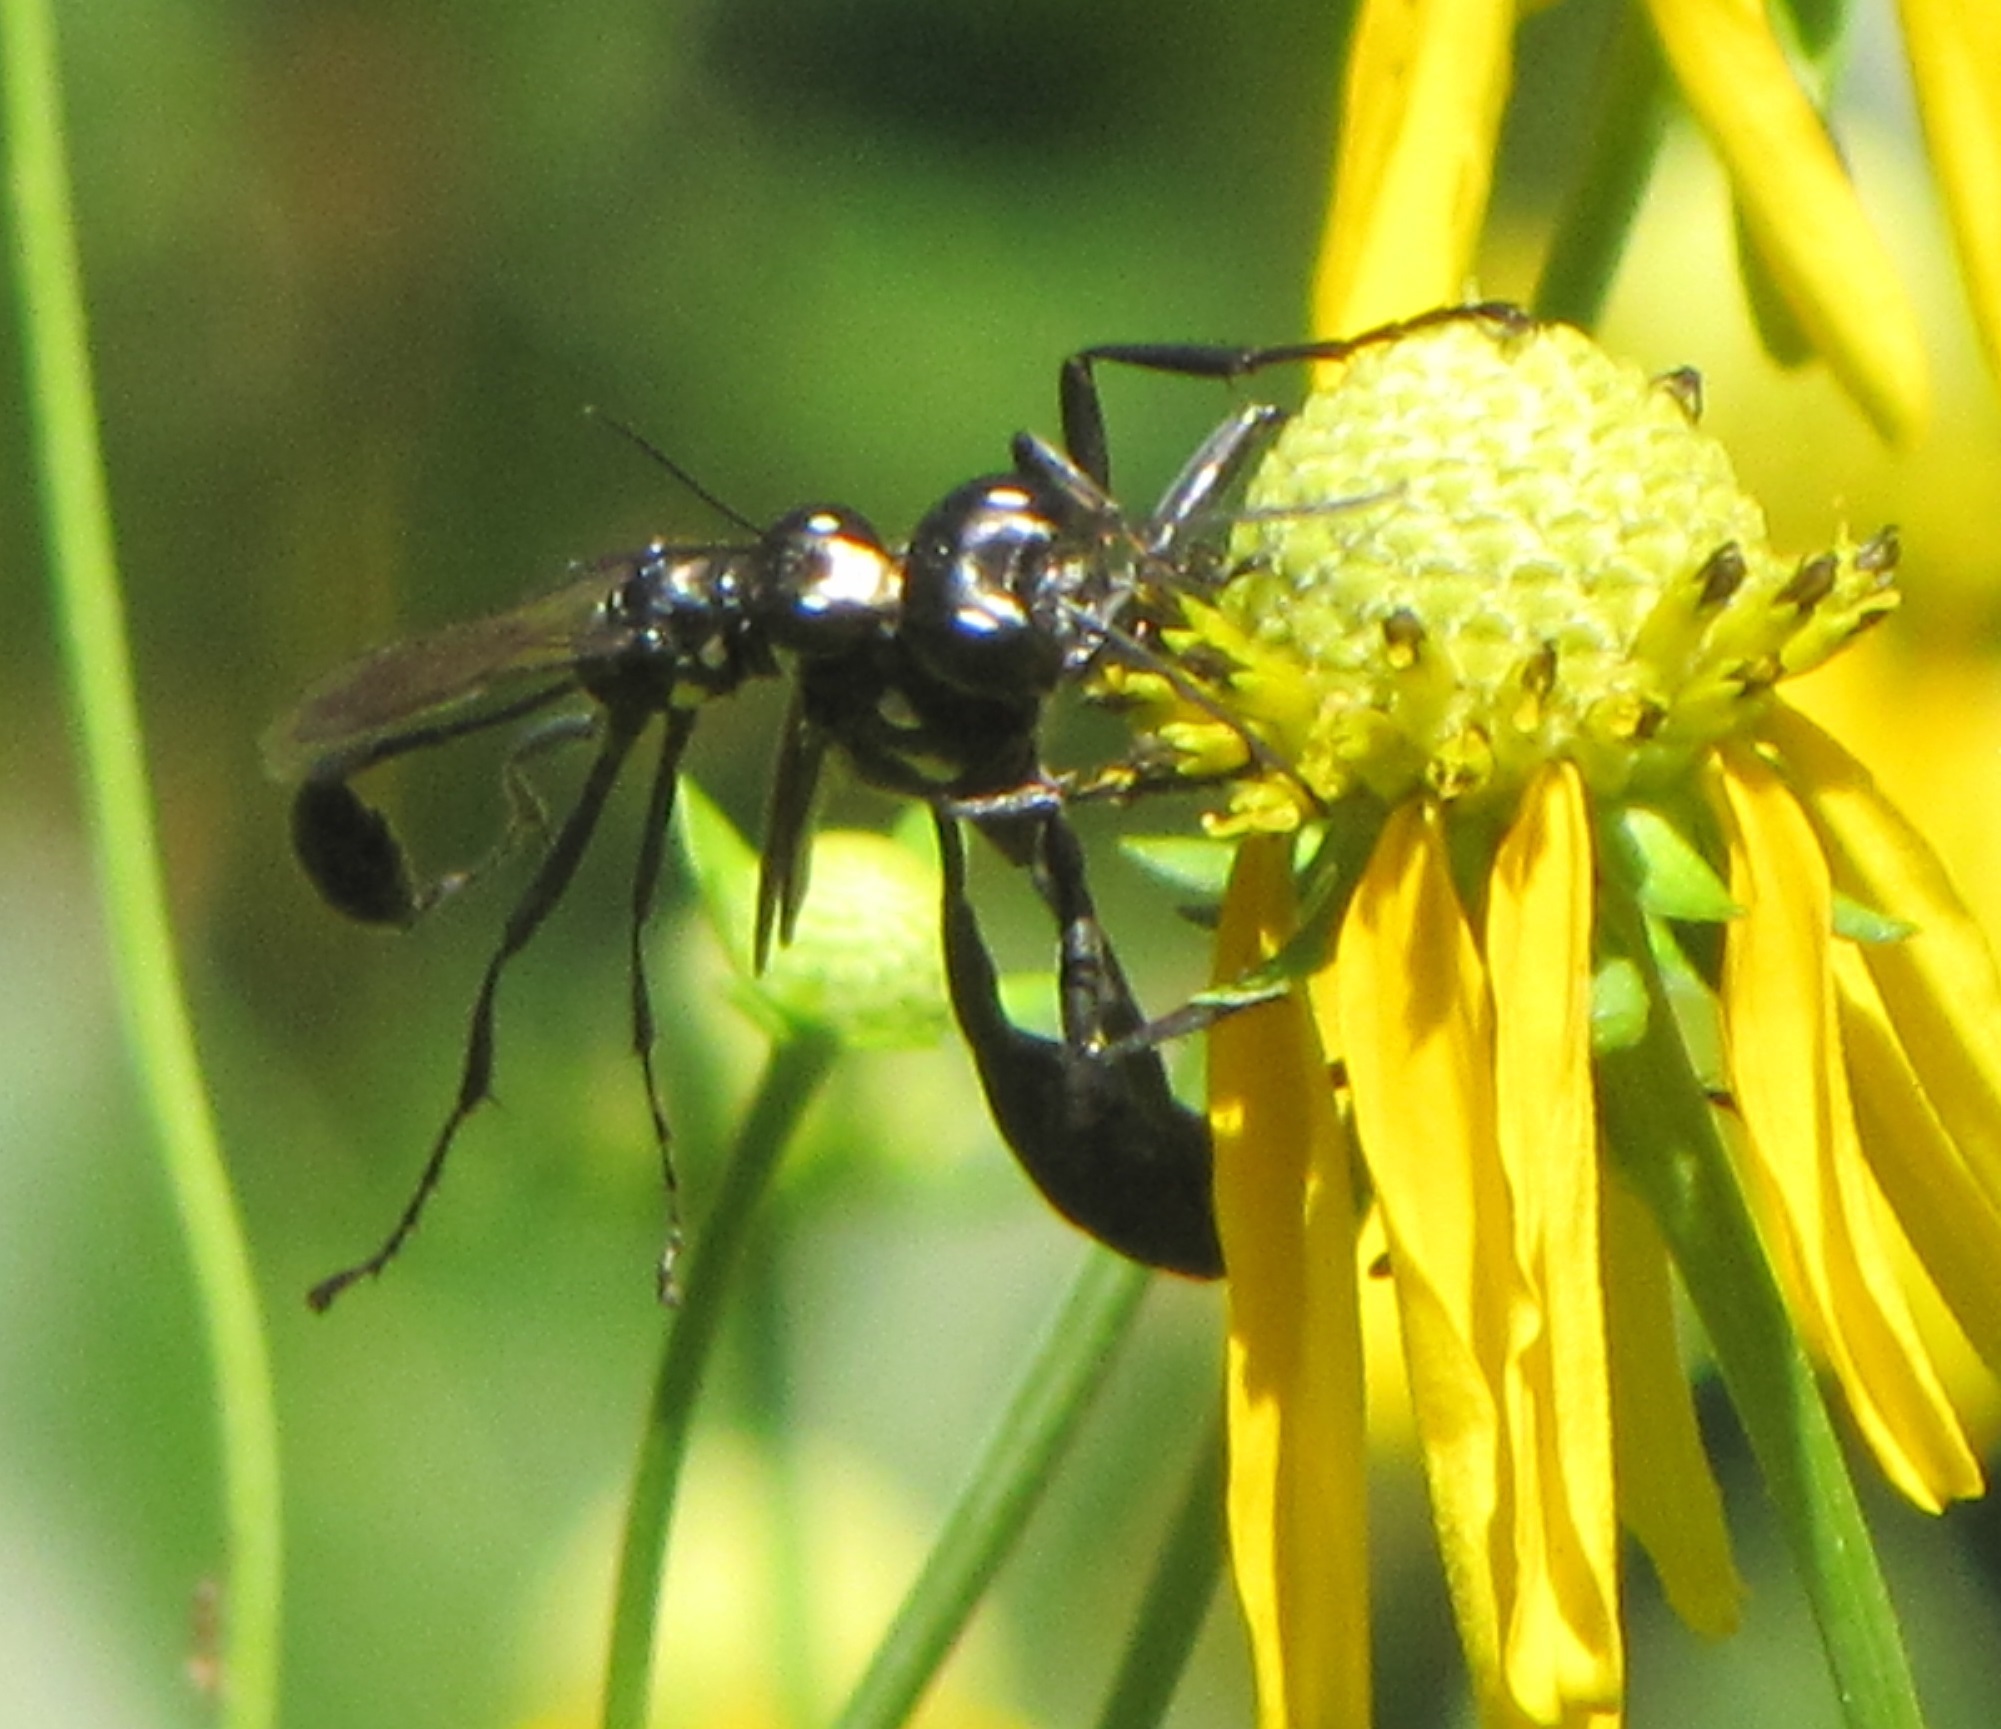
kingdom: Animalia
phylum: Arthropoda
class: Insecta
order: Hymenoptera
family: Sphecidae
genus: Eremnophila
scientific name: Eremnophila aureonotata
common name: Gold-marked thread-waisted wasp
